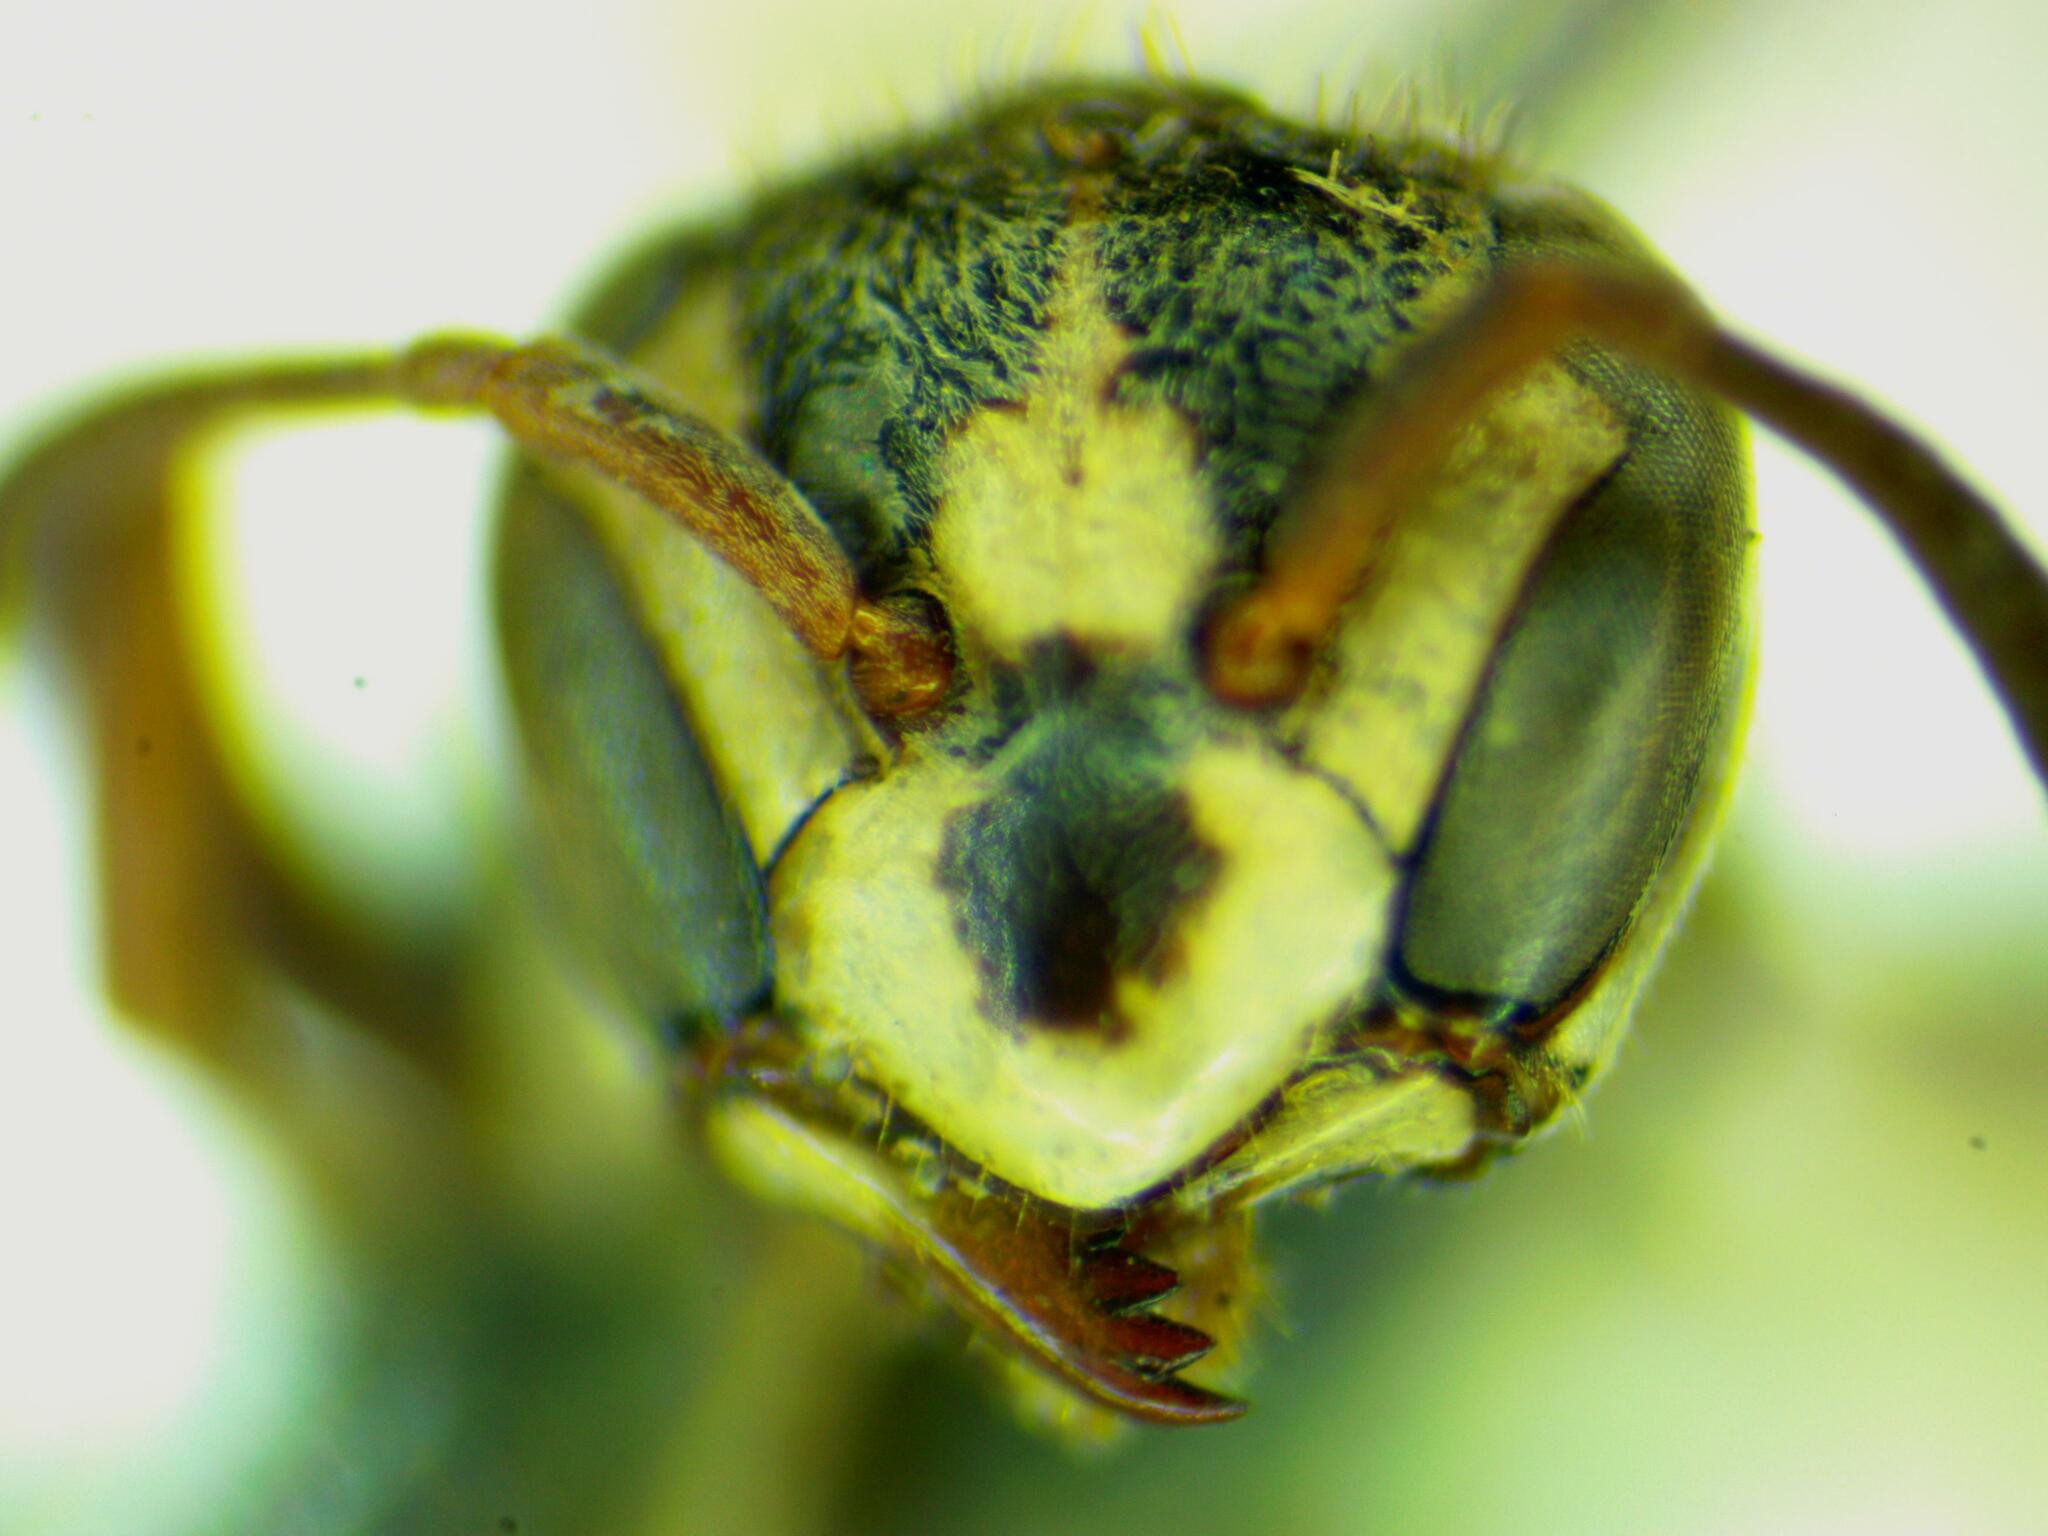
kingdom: Animalia
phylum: Arthropoda
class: Insecta
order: Hymenoptera
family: Vespidae
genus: Protopolybia
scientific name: Protopolybia wheeleri
